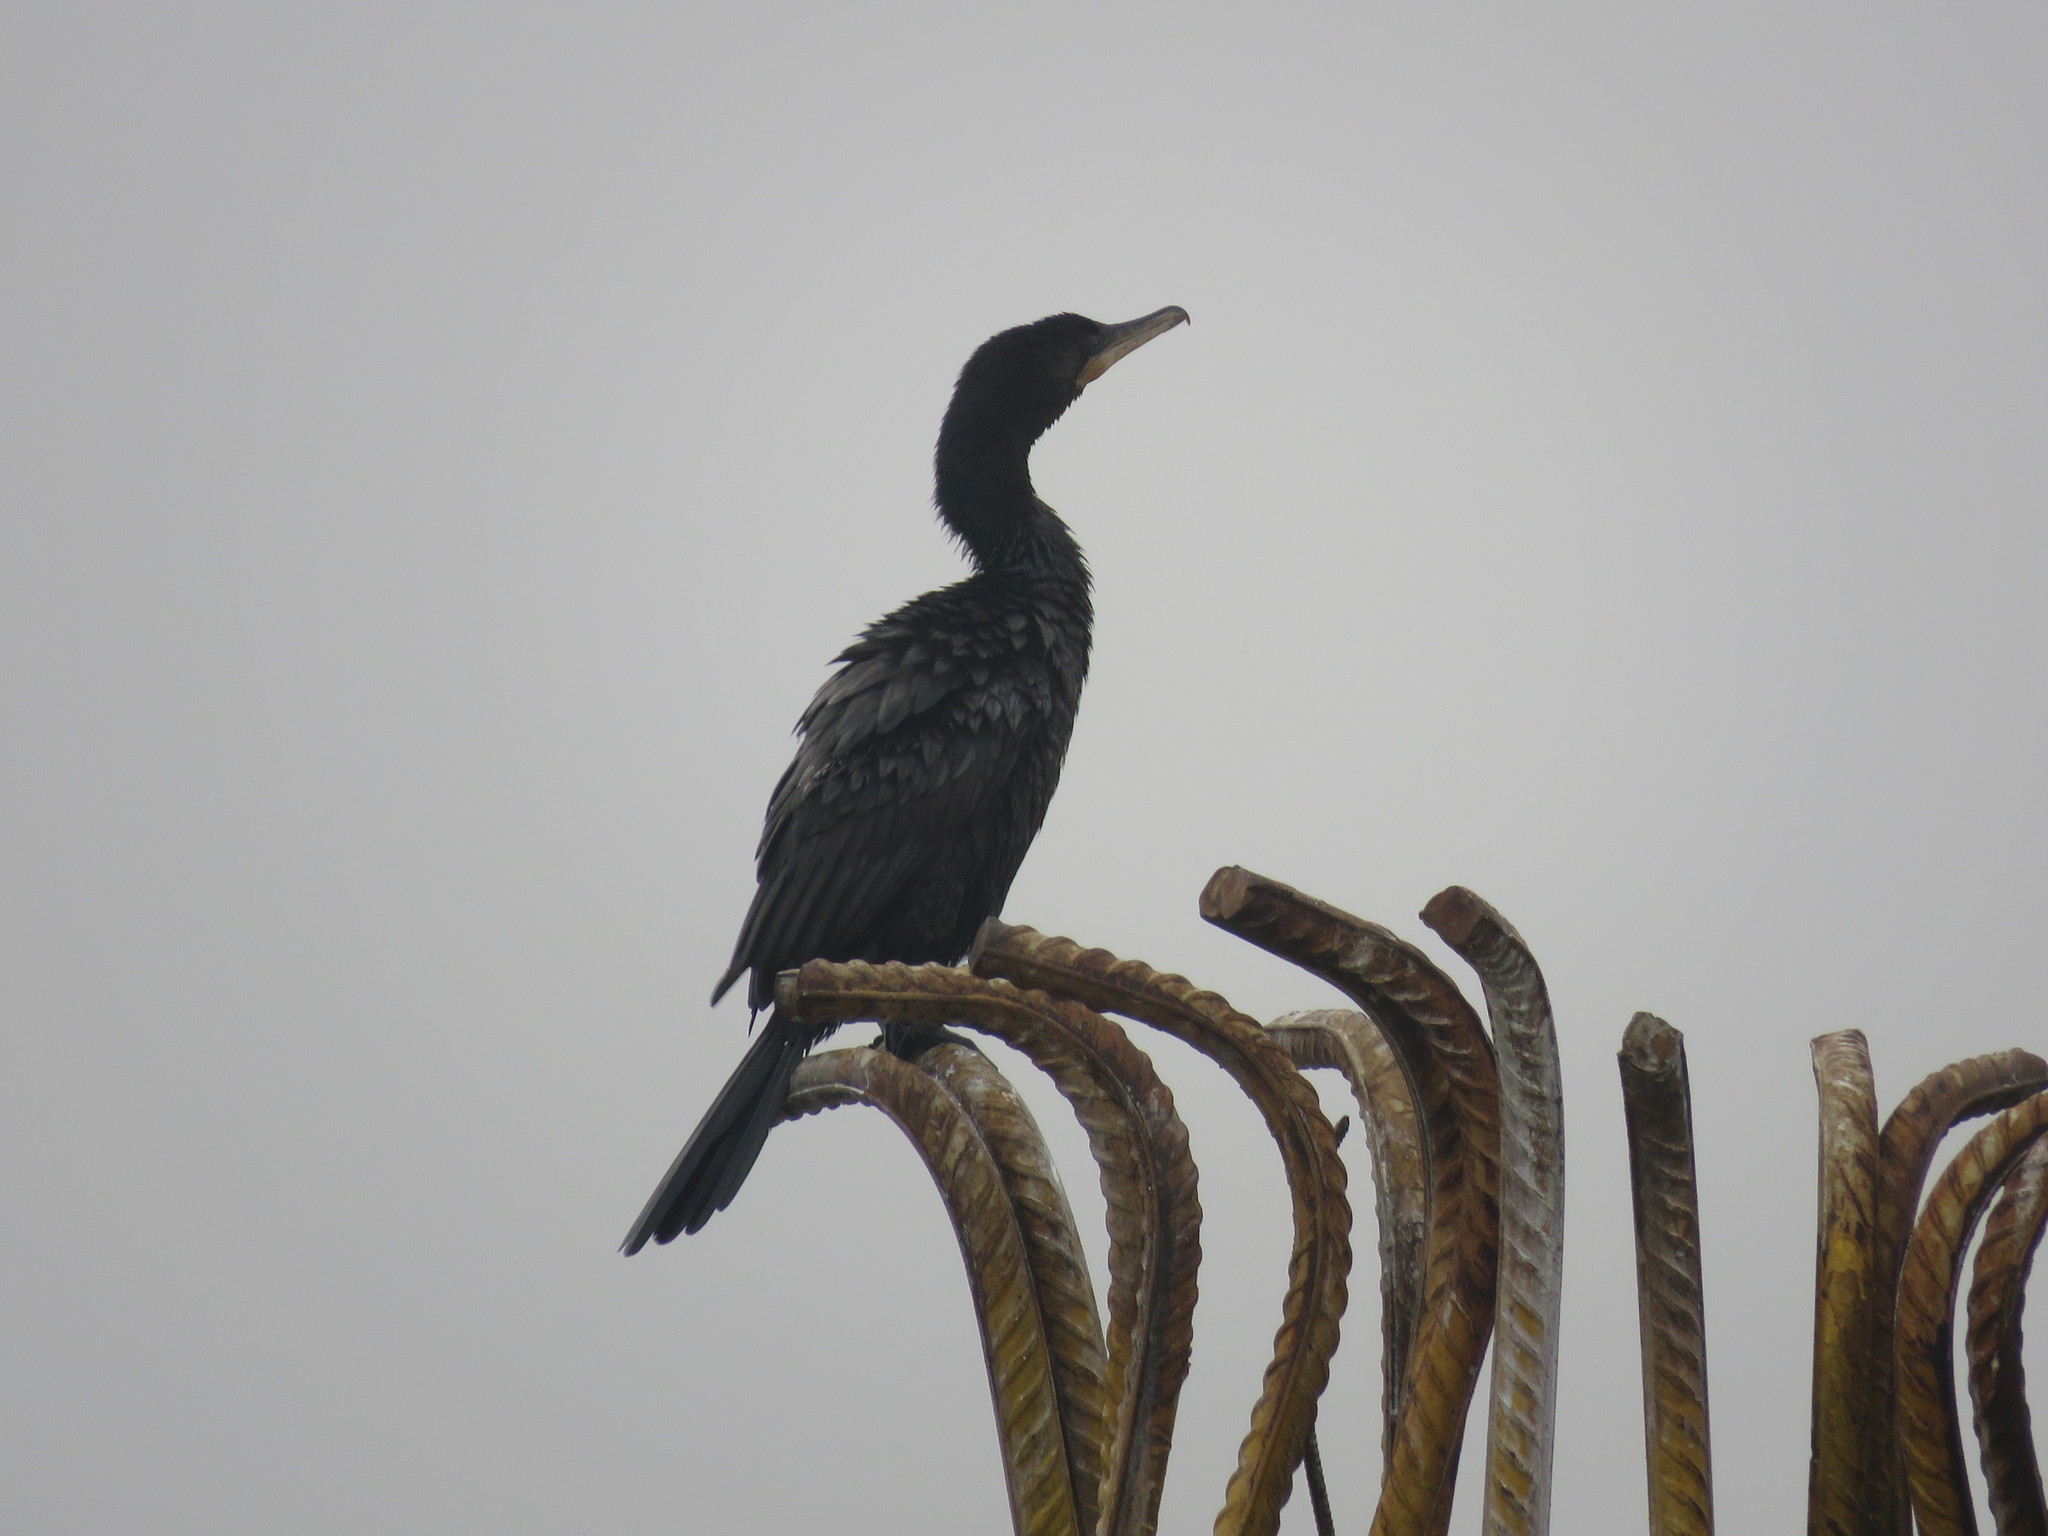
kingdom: Animalia
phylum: Chordata
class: Aves
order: Suliformes
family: Phalacrocoracidae
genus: Phalacrocorax
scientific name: Phalacrocorax brasilianus
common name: Neotropic cormorant
